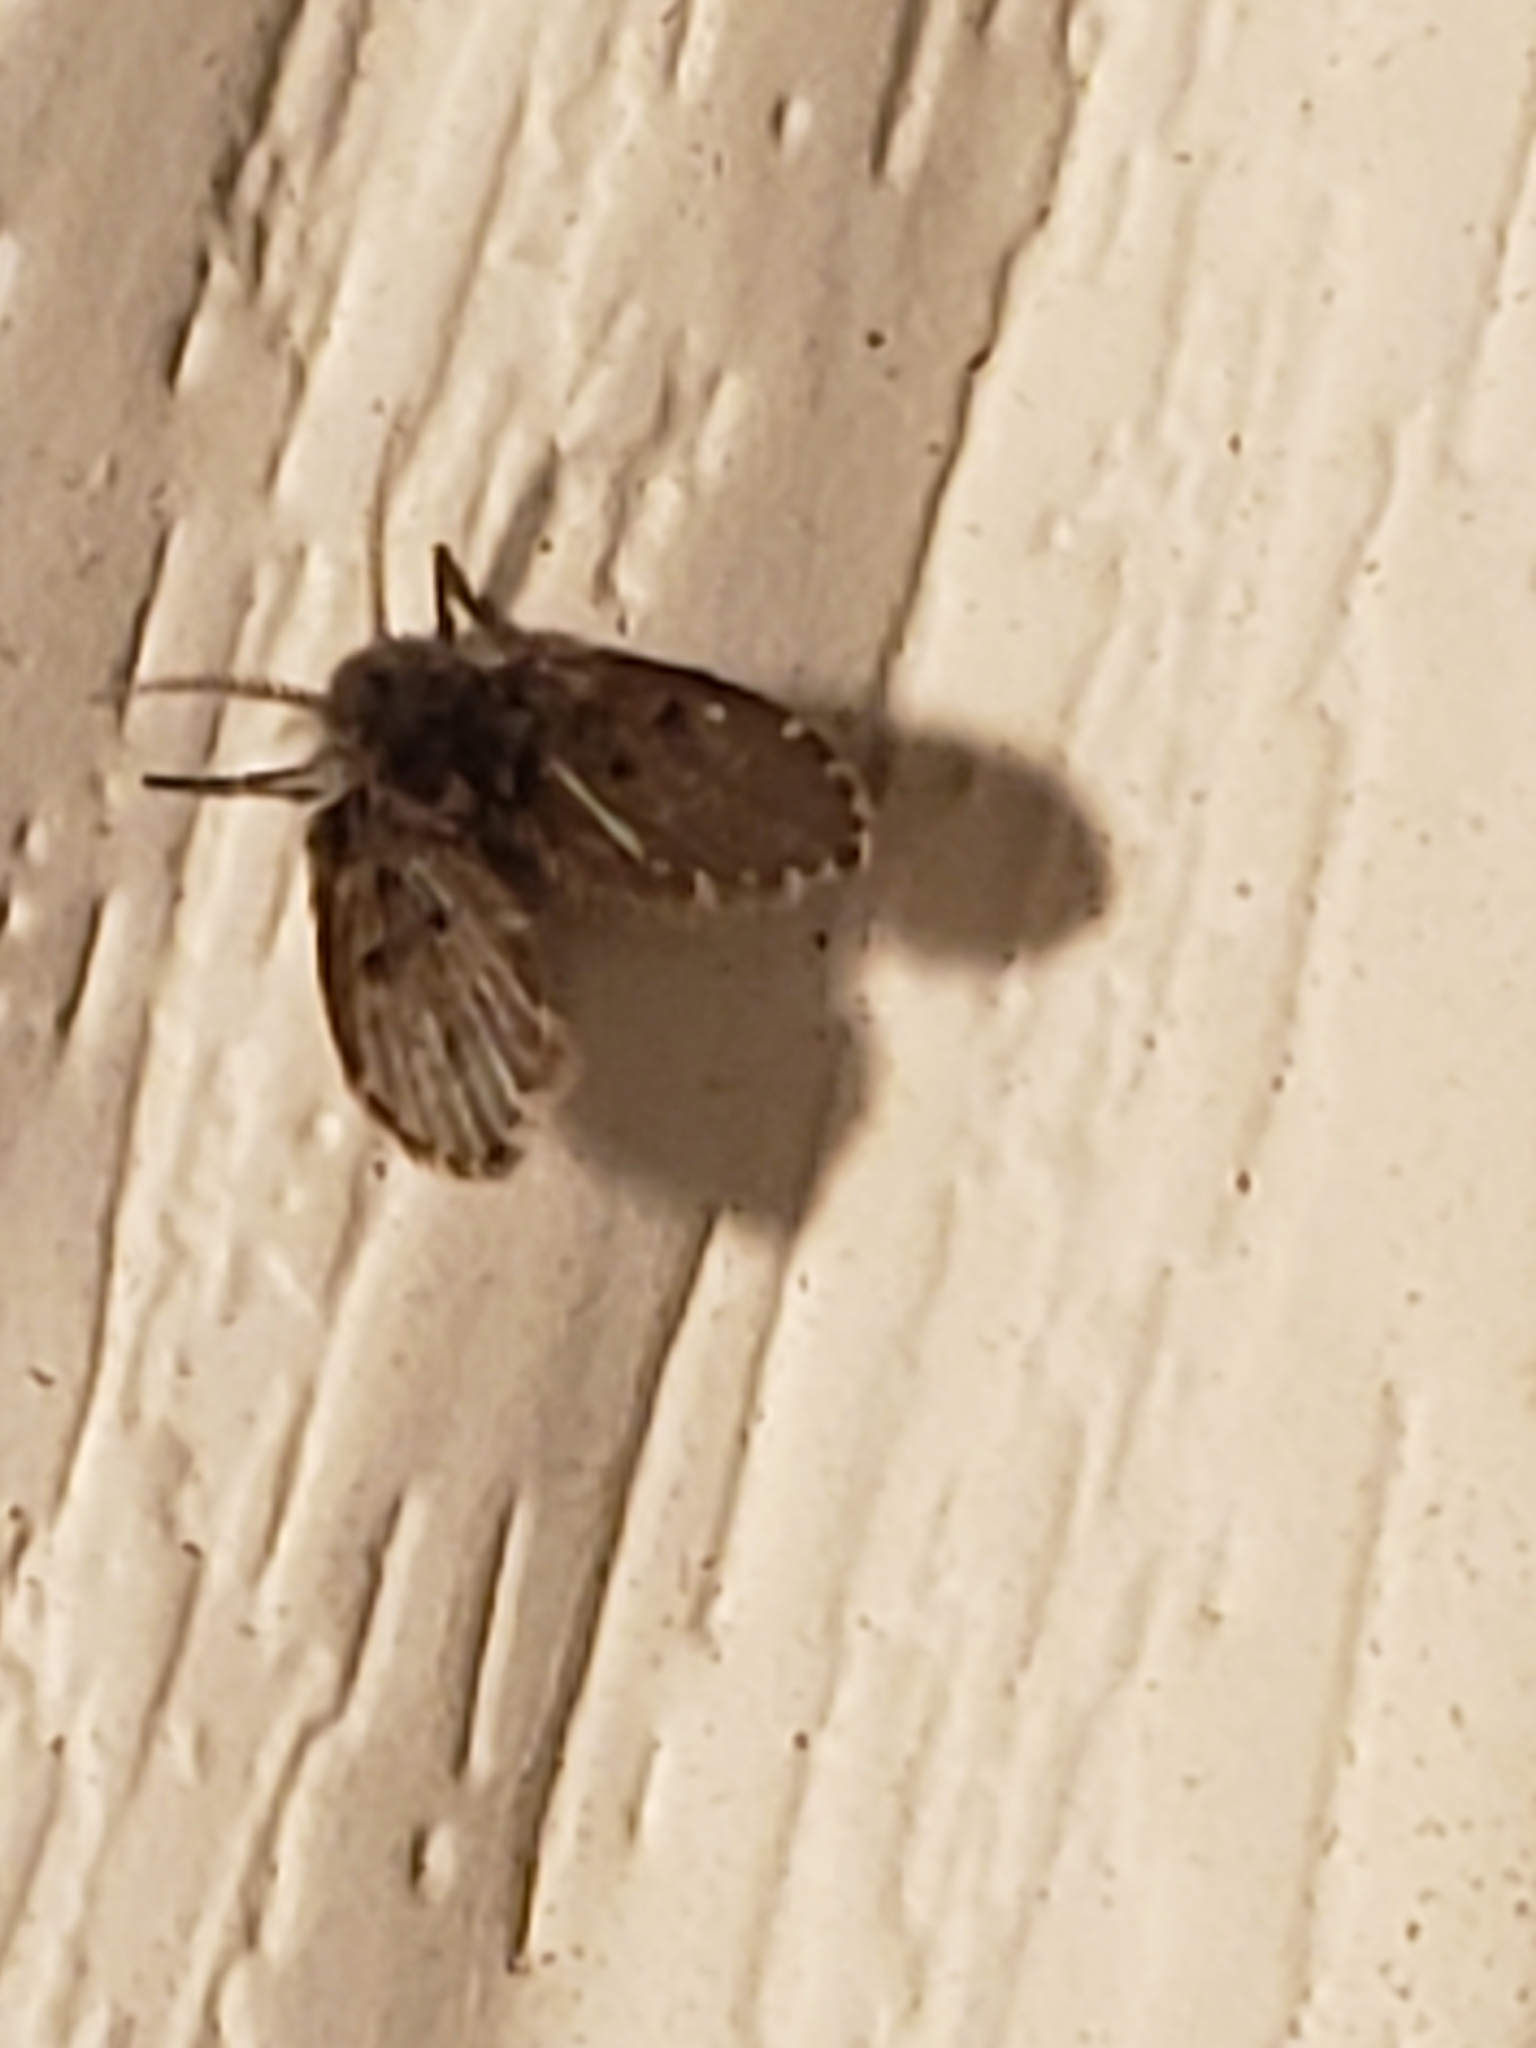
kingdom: Animalia
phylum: Arthropoda
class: Insecta
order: Diptera
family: Psychodidae
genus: Clogmia
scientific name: Clogmia albipunctatus
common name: White-spotted moth fly
